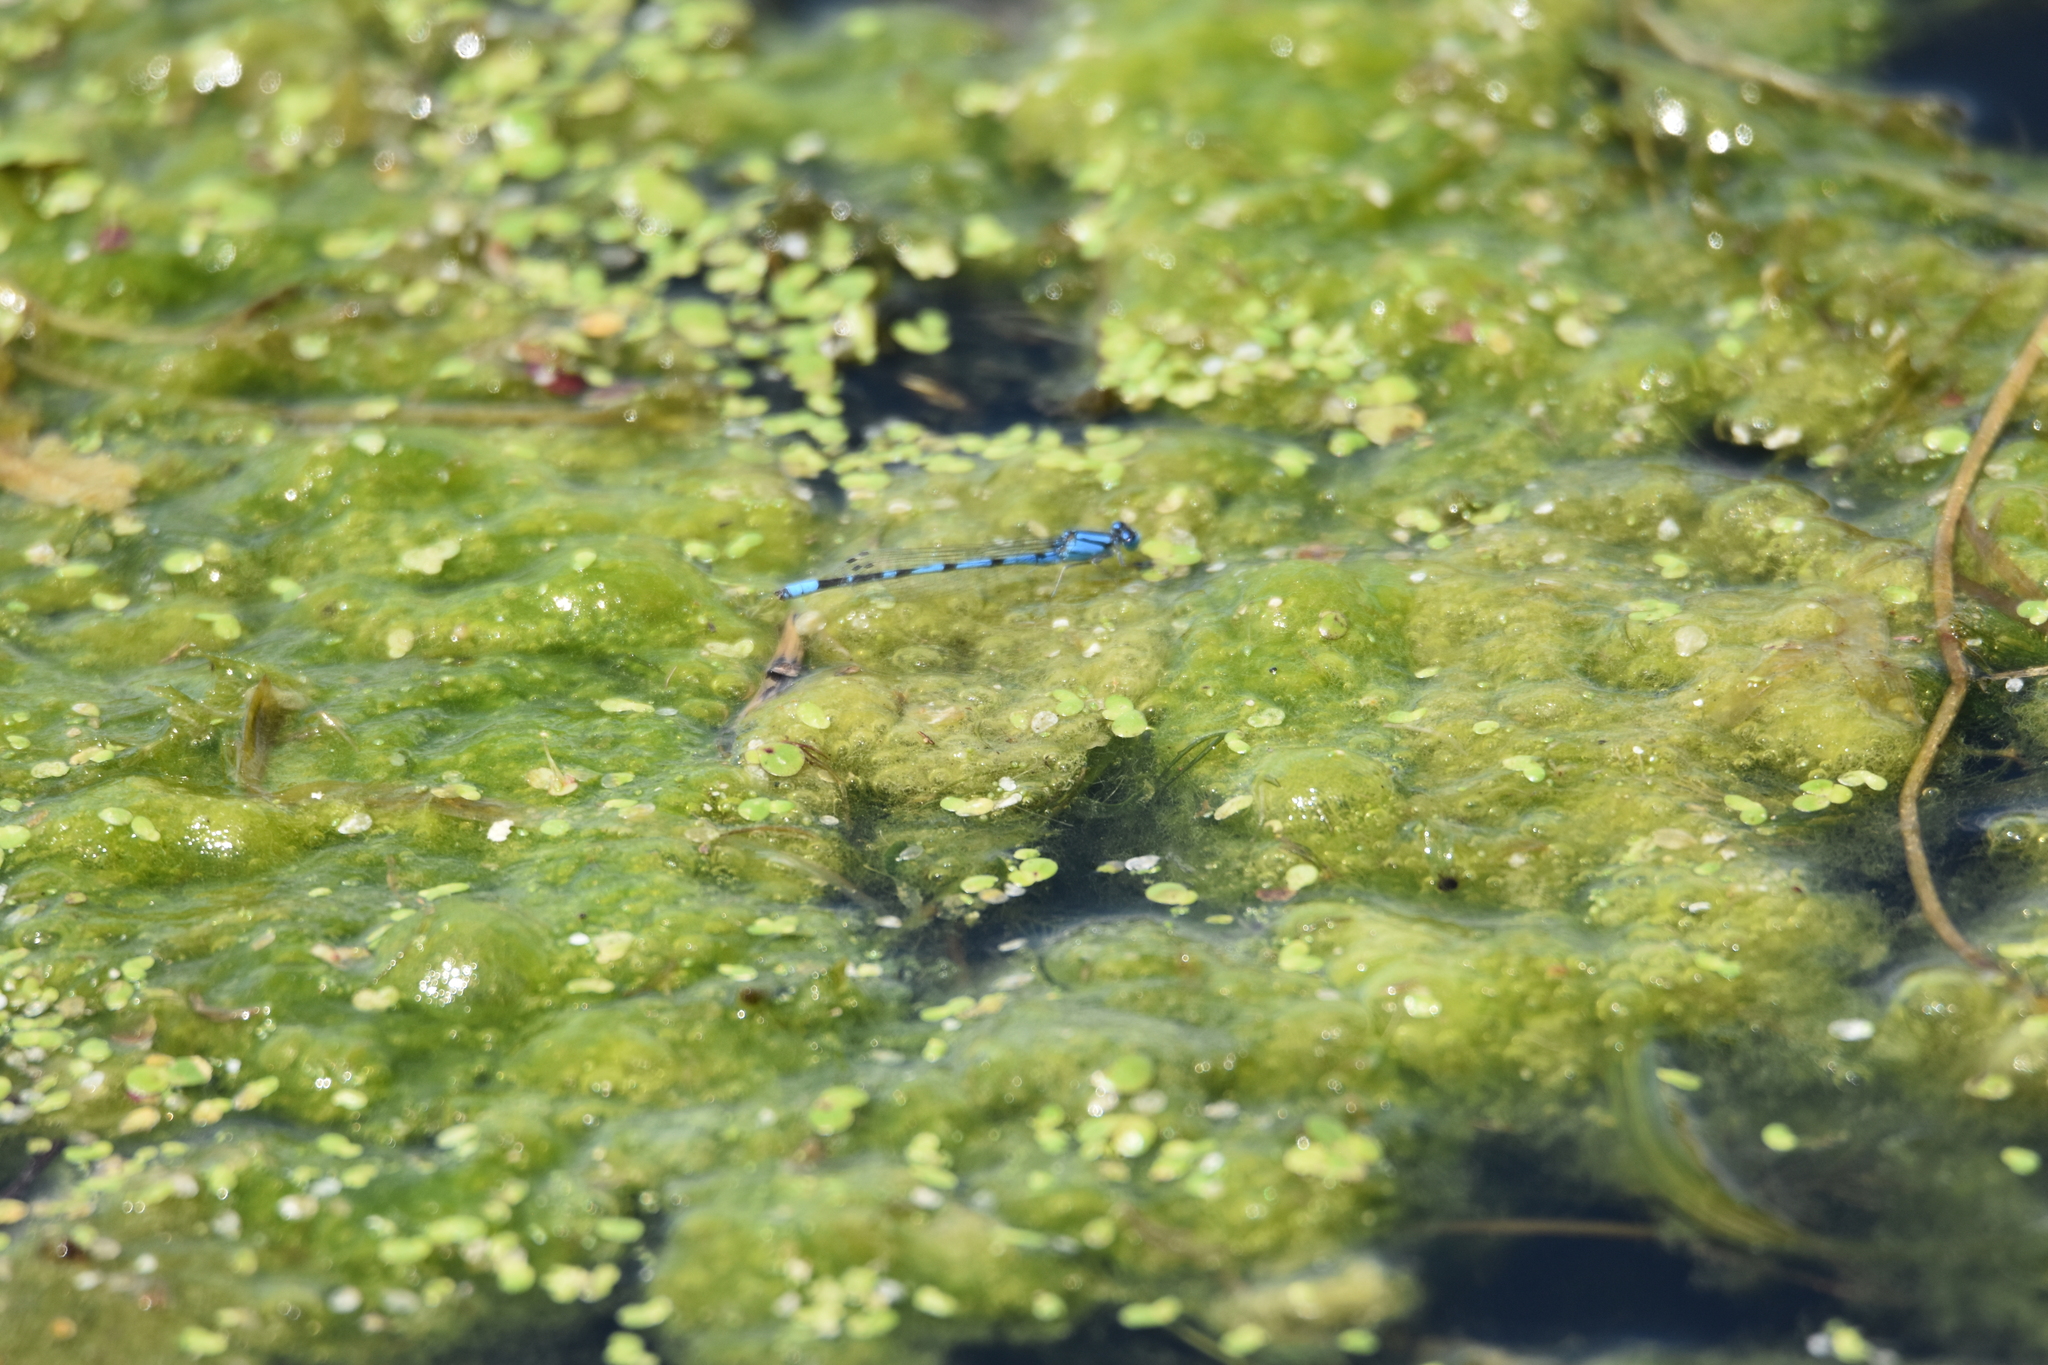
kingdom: Animalia
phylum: Arthropoda
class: Insecta
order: Odonata
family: Coenagrionidae
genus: Enallagma
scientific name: Enallagma civile
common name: Damselfly
